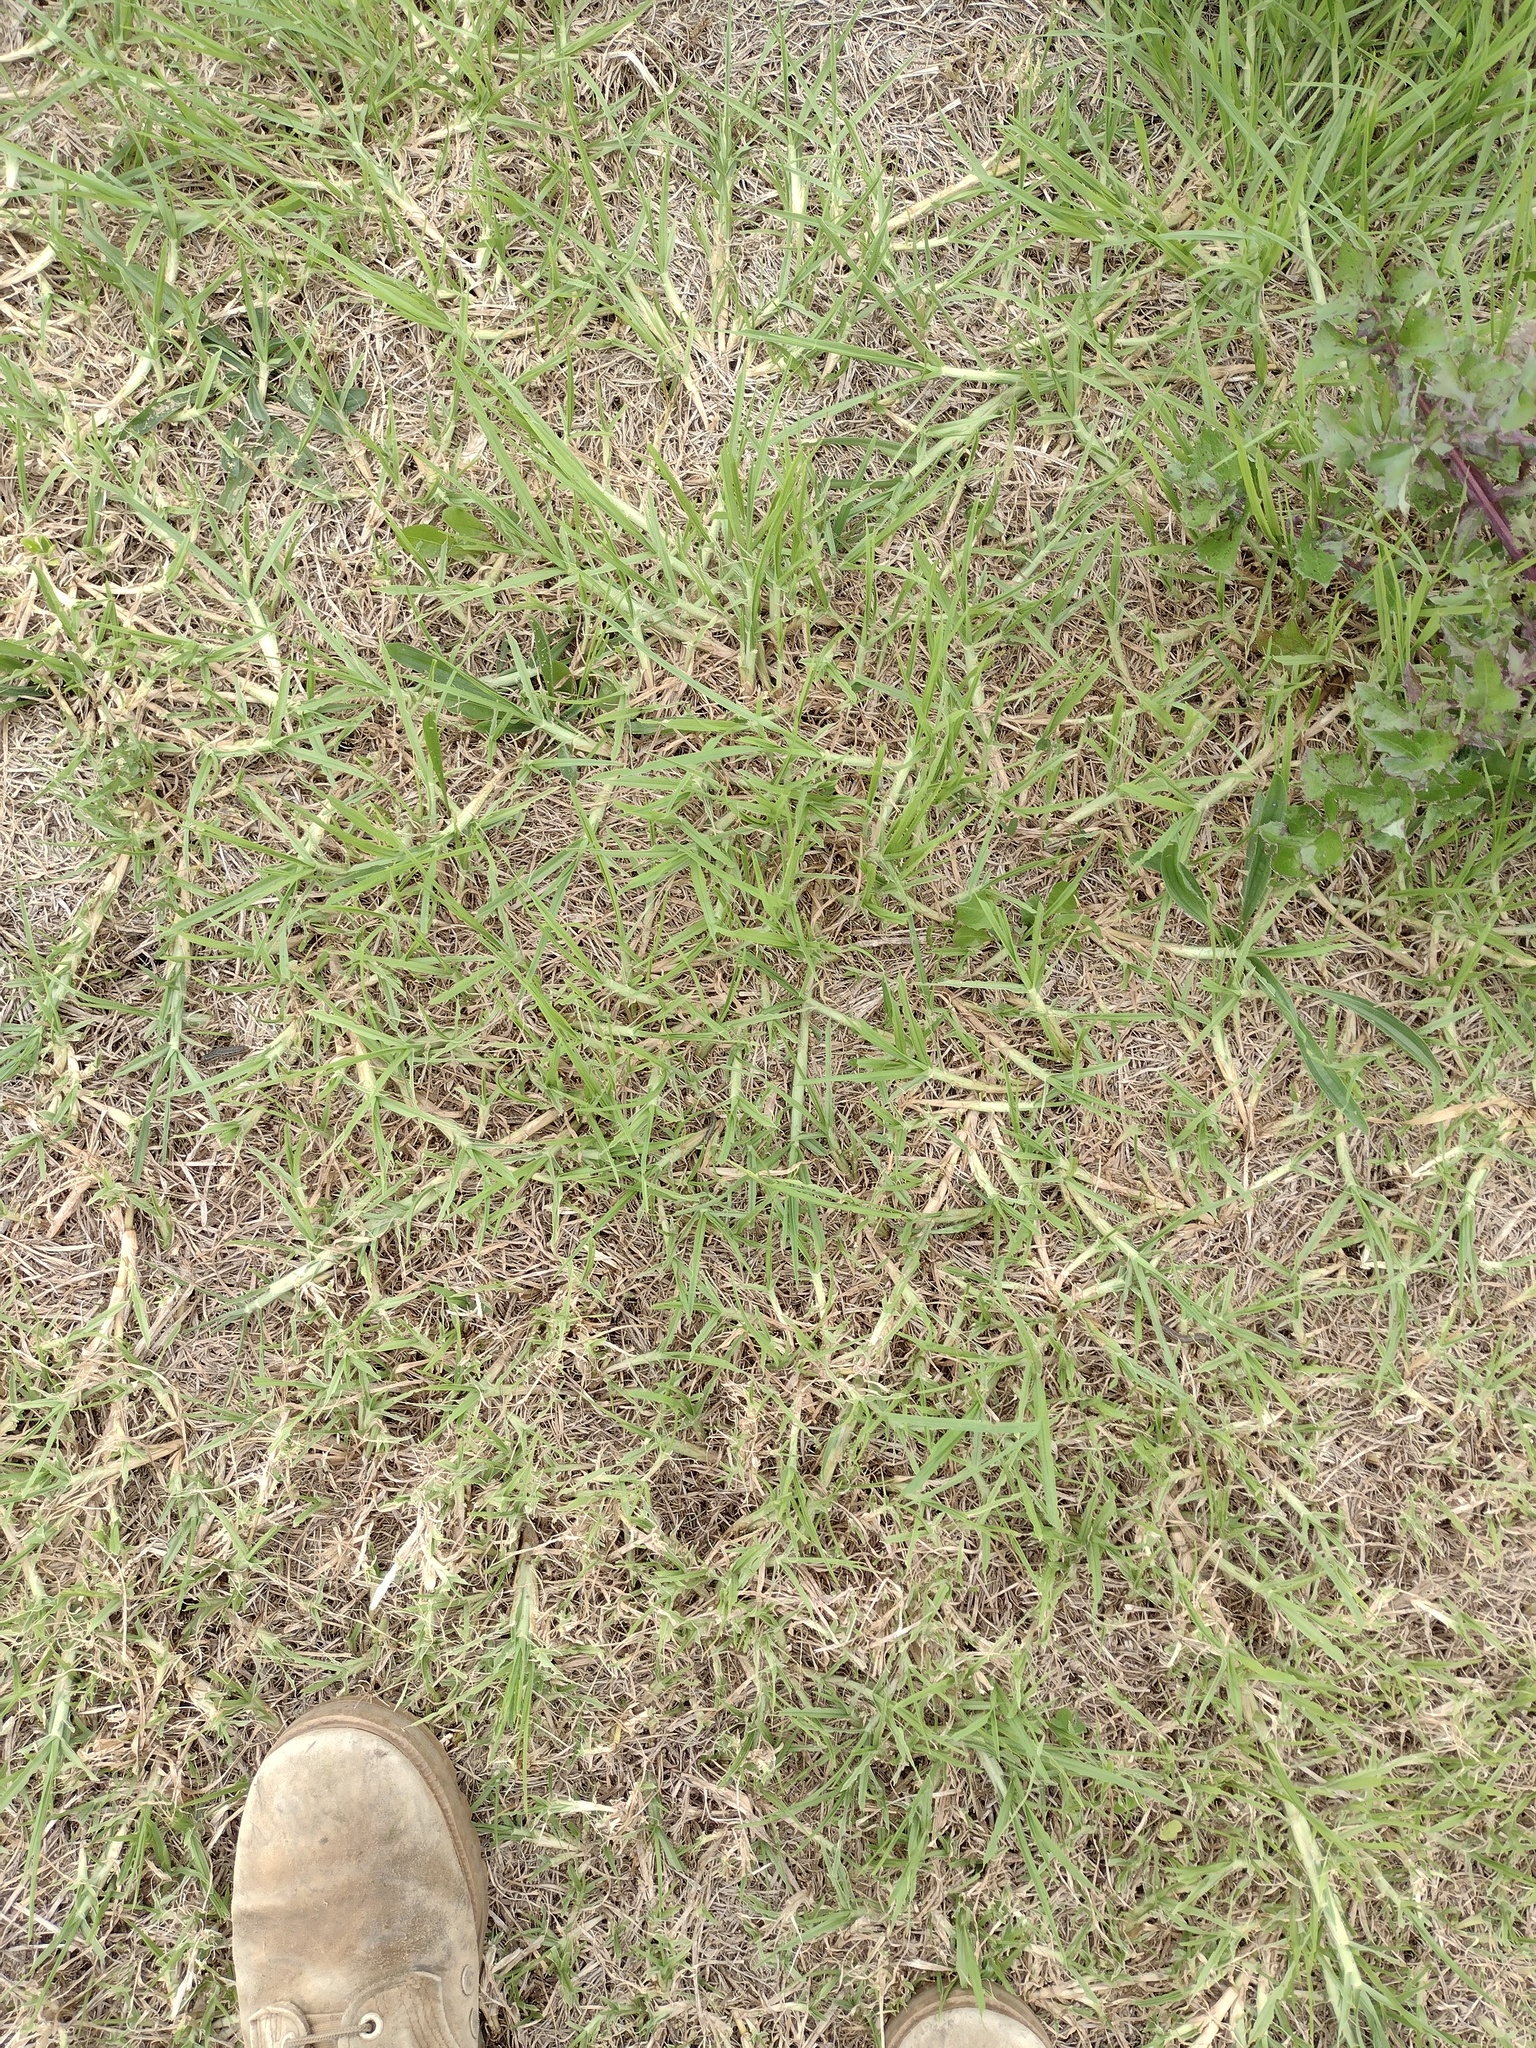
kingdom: Plantae
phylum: Tracheophyta
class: Liliopsida
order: Poales
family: Poaceae
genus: Cenchrus
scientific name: Cenchrus clandestinus
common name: Kikuyugrass
